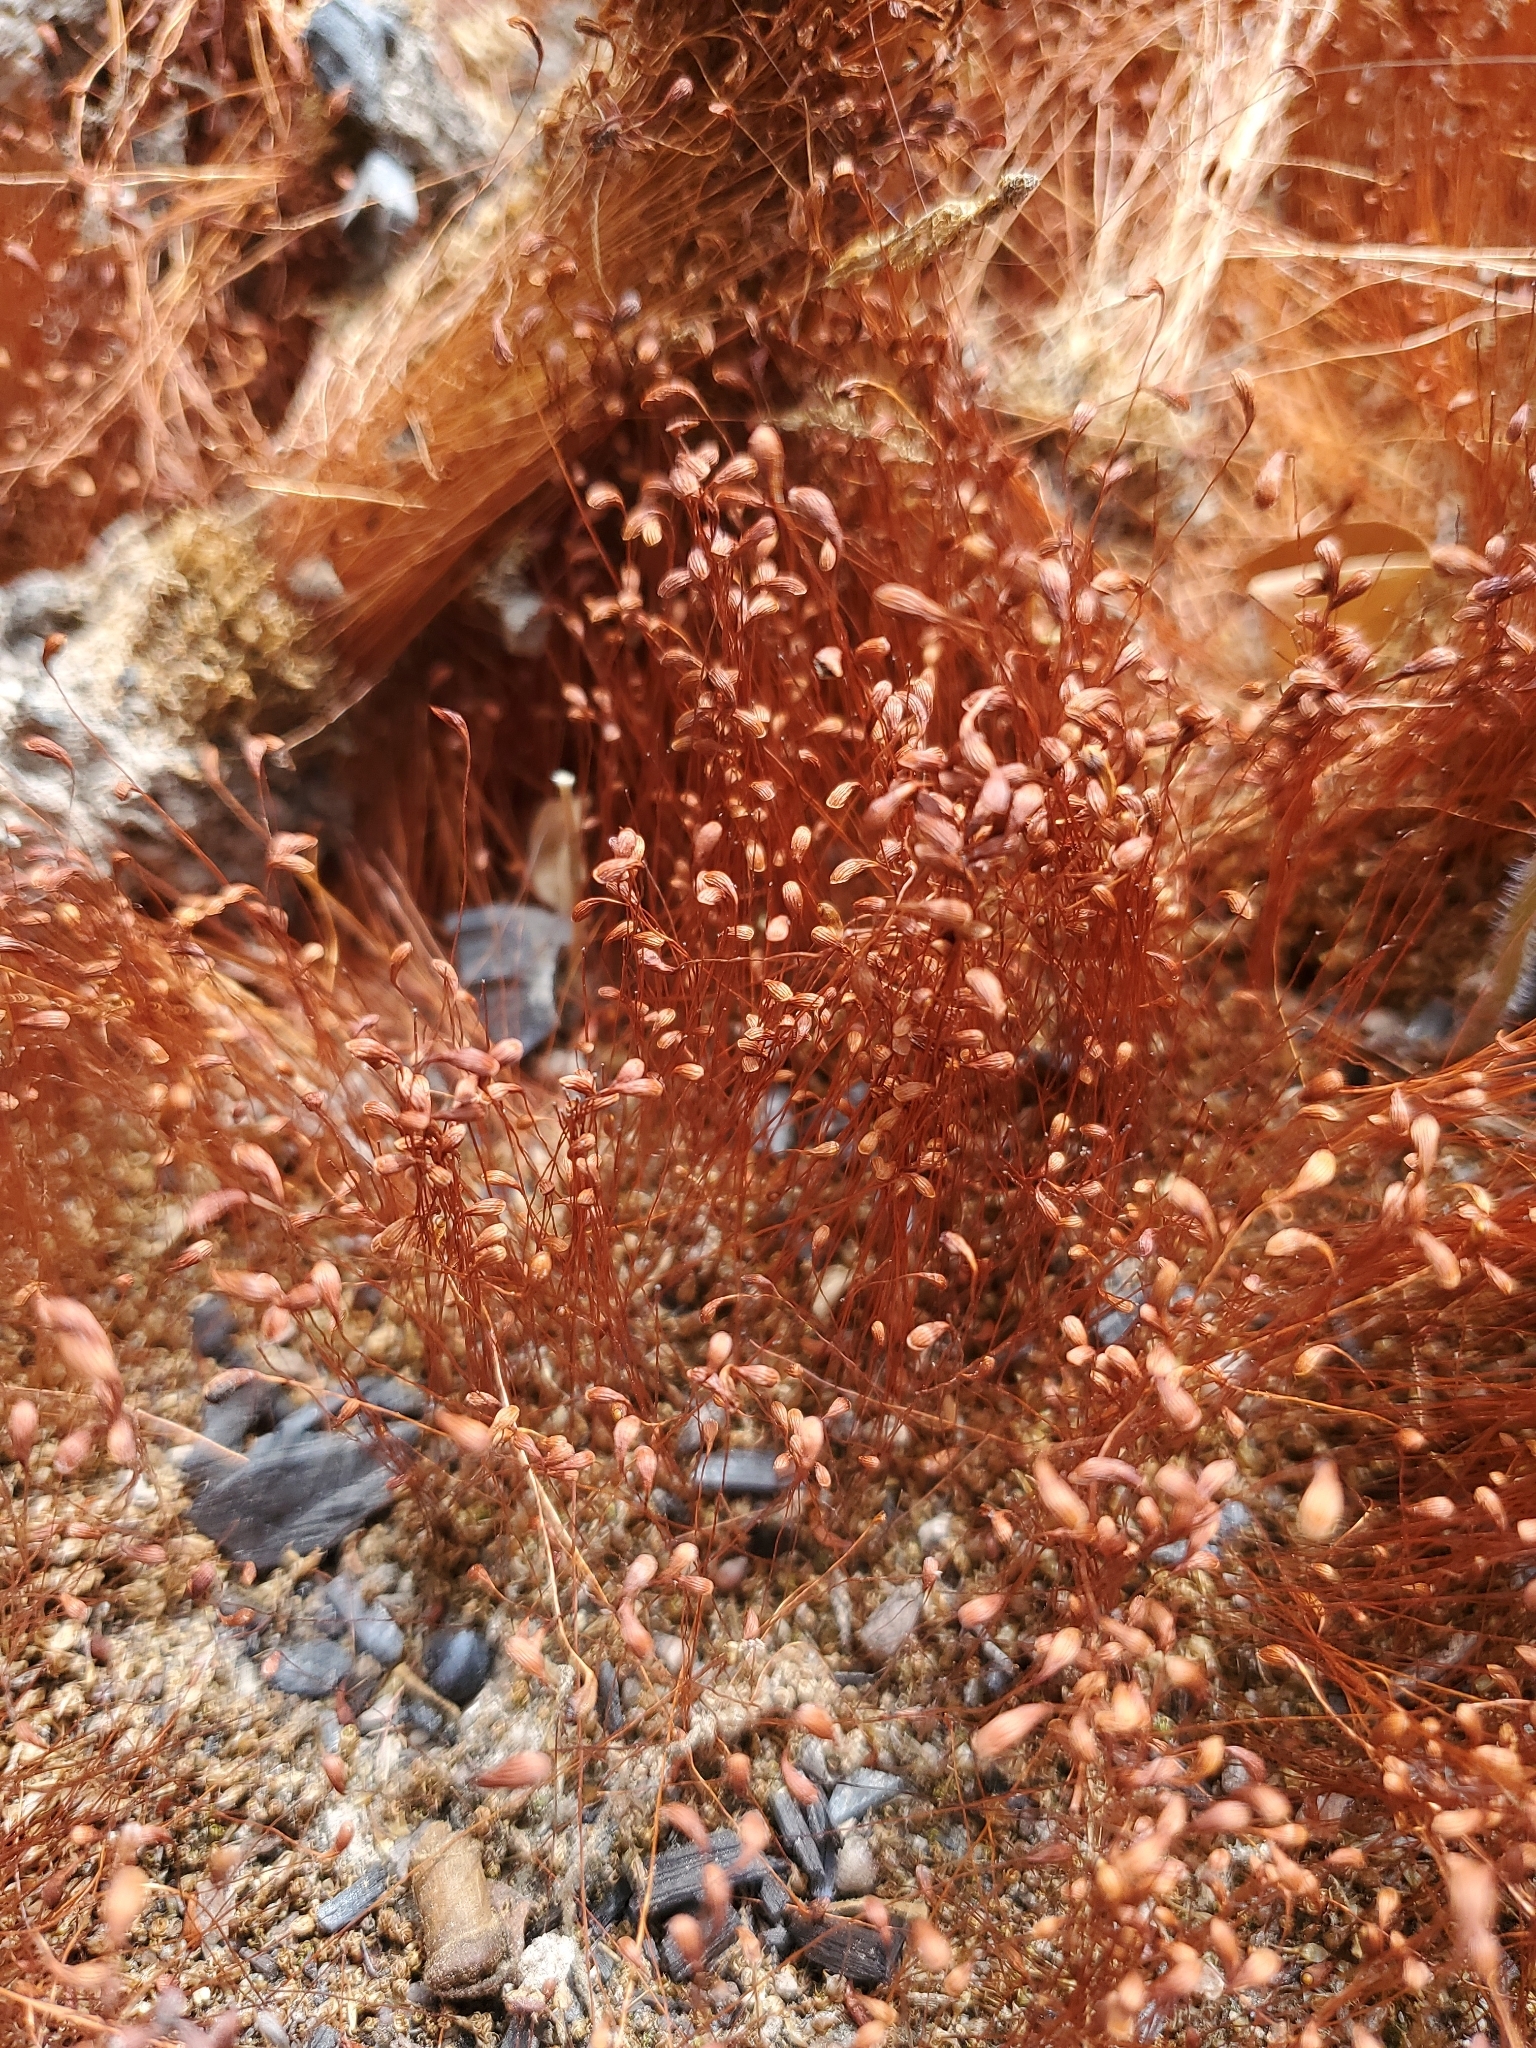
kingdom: Plantae
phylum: Bryophyta
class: Bryopsida
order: Funariales
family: Funariaceae
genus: Funaria
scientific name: Funaria hygrometrica
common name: Common cord moss
